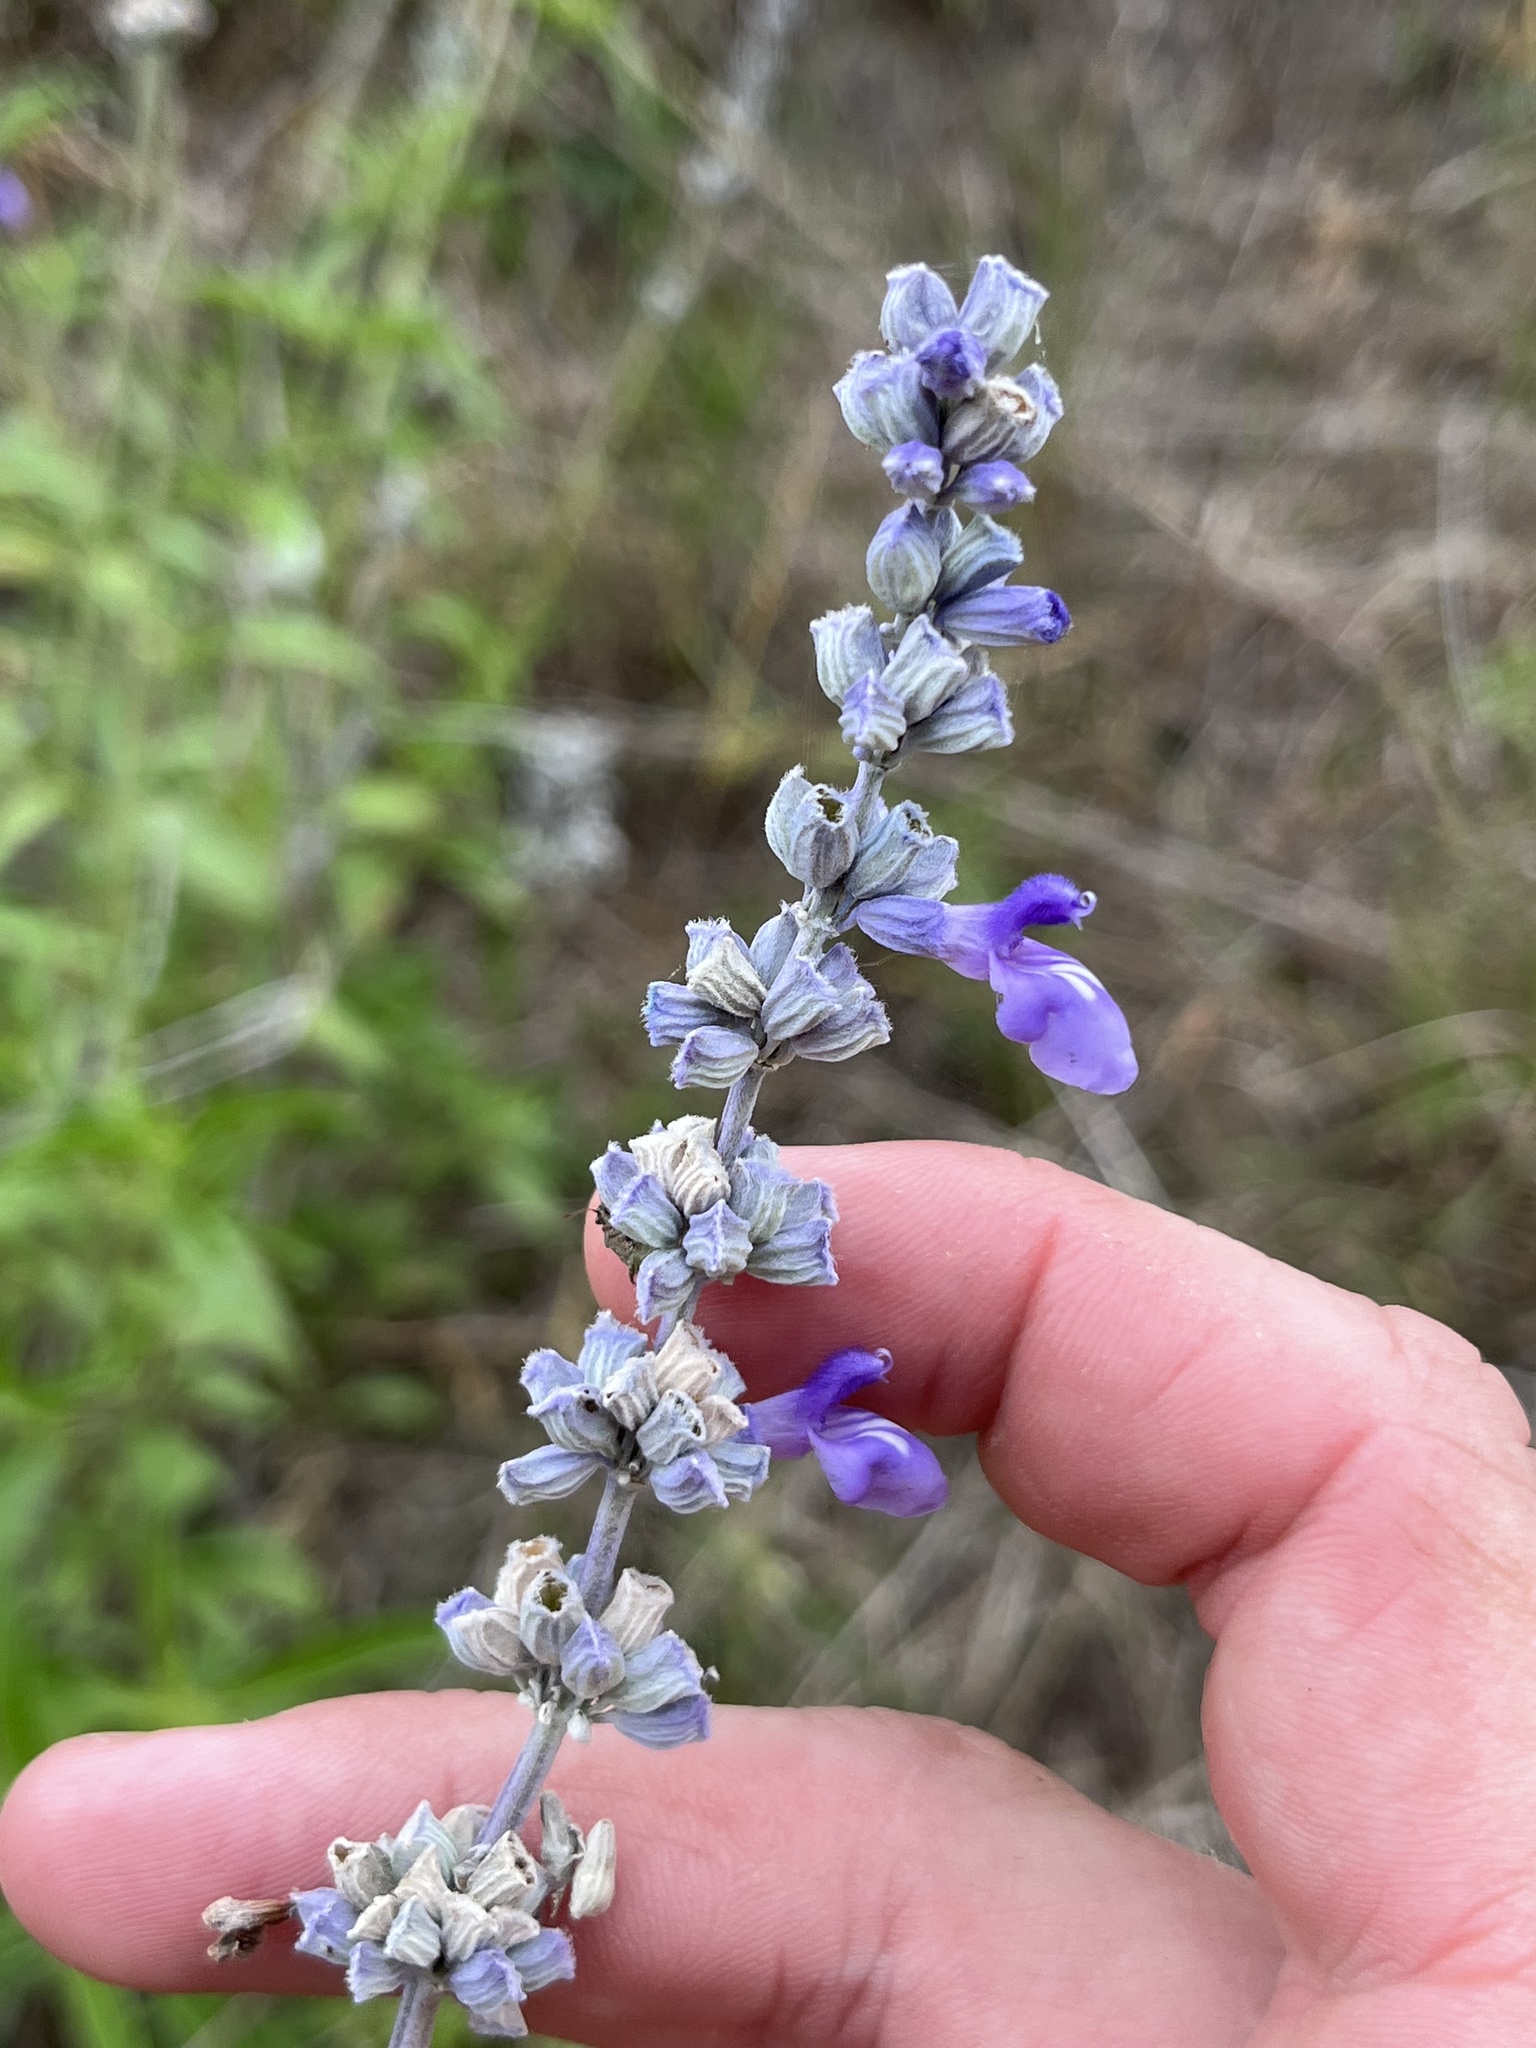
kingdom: Plantae
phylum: Tracheophyta
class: Magnoliopsida
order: Lamiales
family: Lamiaceae
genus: Salvia
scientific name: Salvia farinacea
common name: Mealy sage
